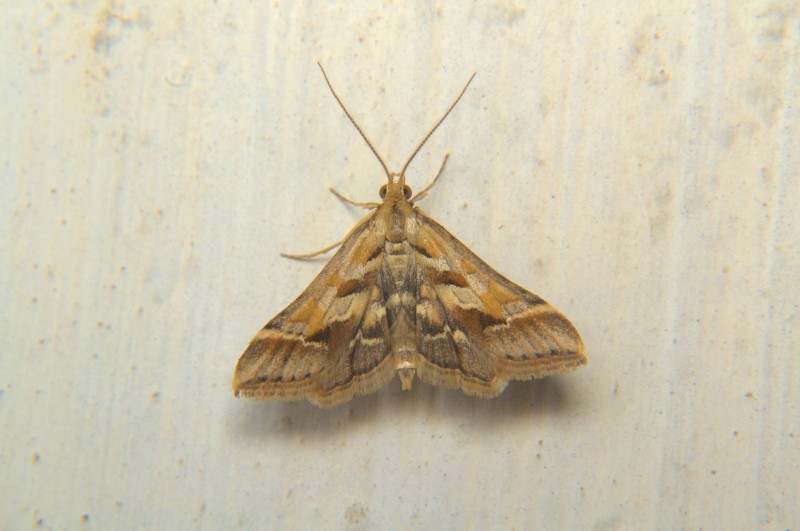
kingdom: Animalia
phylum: Arthropoda
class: Insecta
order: Lepidoptera
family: Crambidae
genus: Diasemia
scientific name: Diasemia accalis
